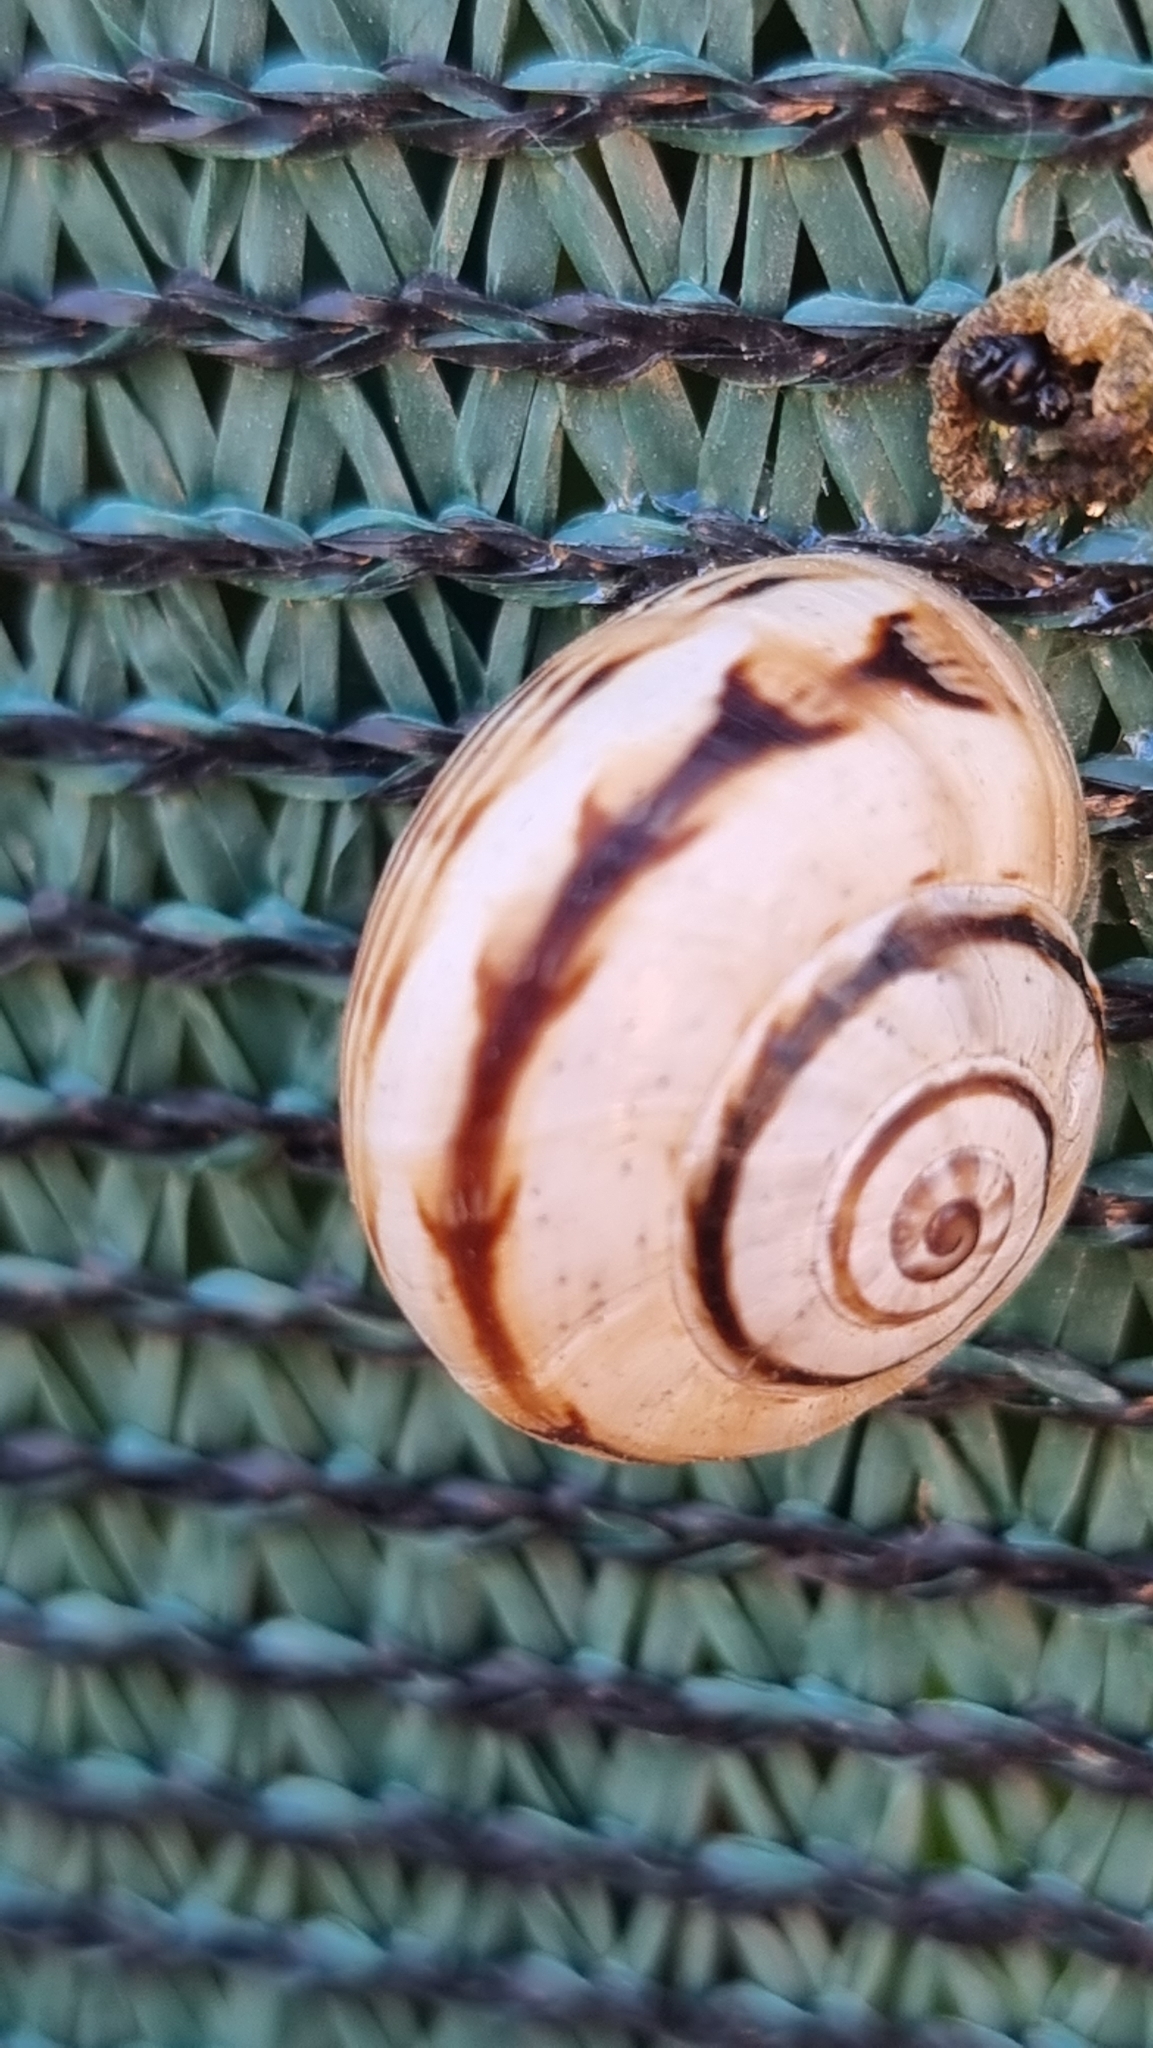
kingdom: Animalia
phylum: Mollusca
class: Gastropoda
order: Stylommatophora
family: Helicidae
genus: Theba
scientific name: Theba pisana
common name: White snail
